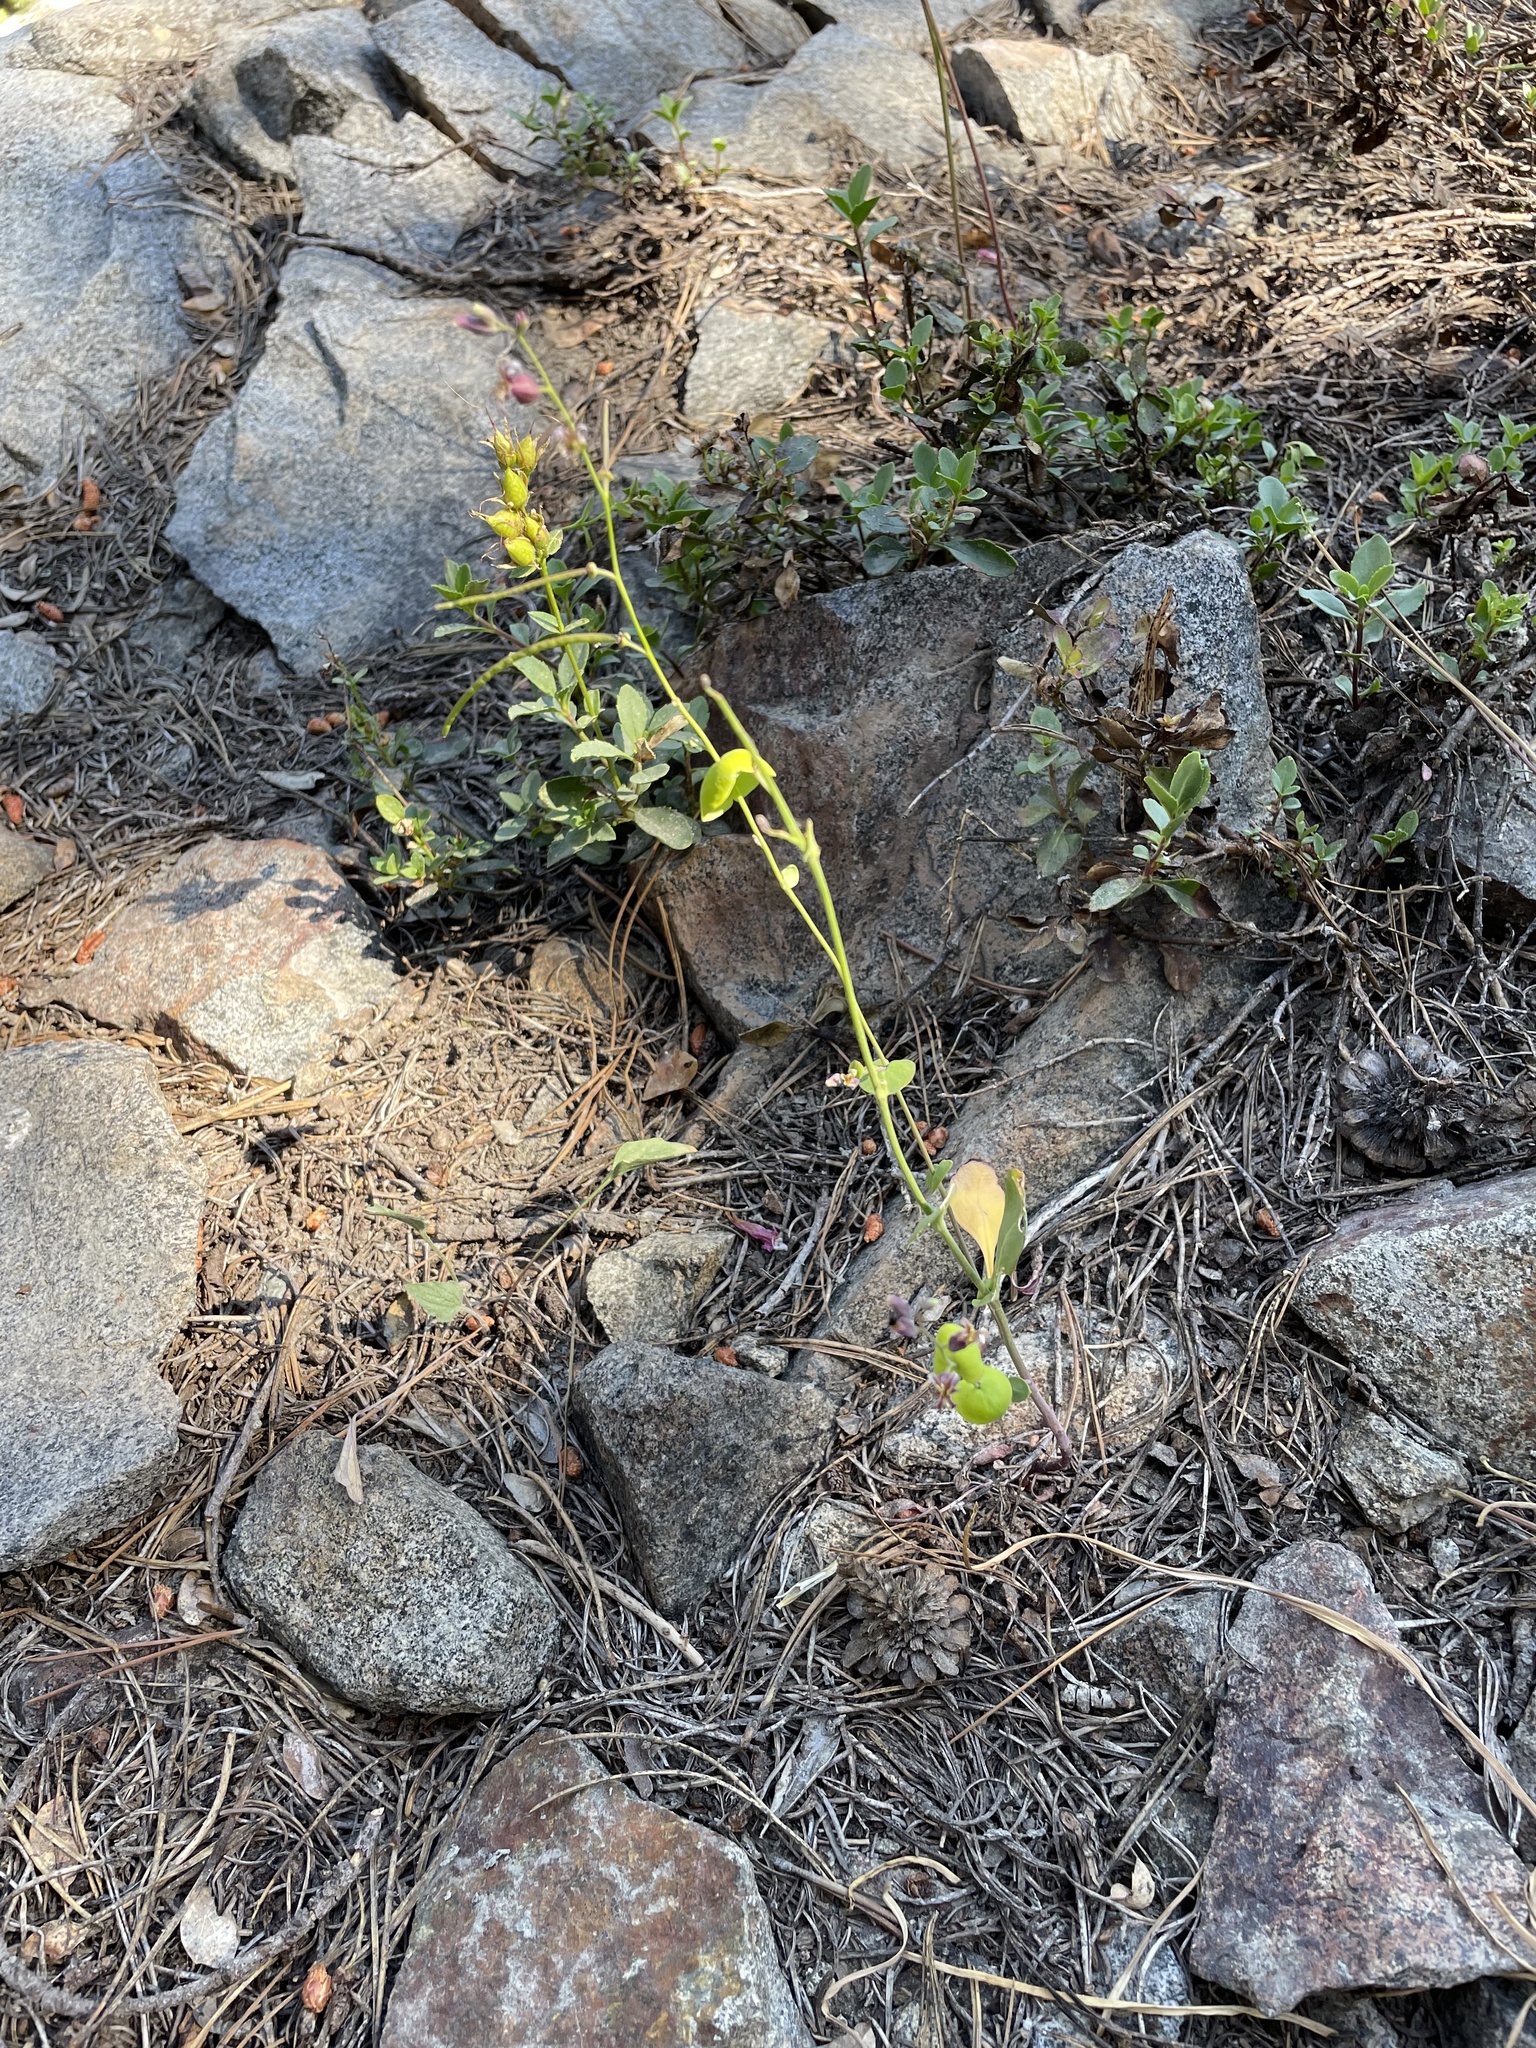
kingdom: Plantae
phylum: Tracheophyta
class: Magnoliopsida
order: Brassicales
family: Brassicaceae
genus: Streptanthus
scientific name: Streptanthus tortuosus
